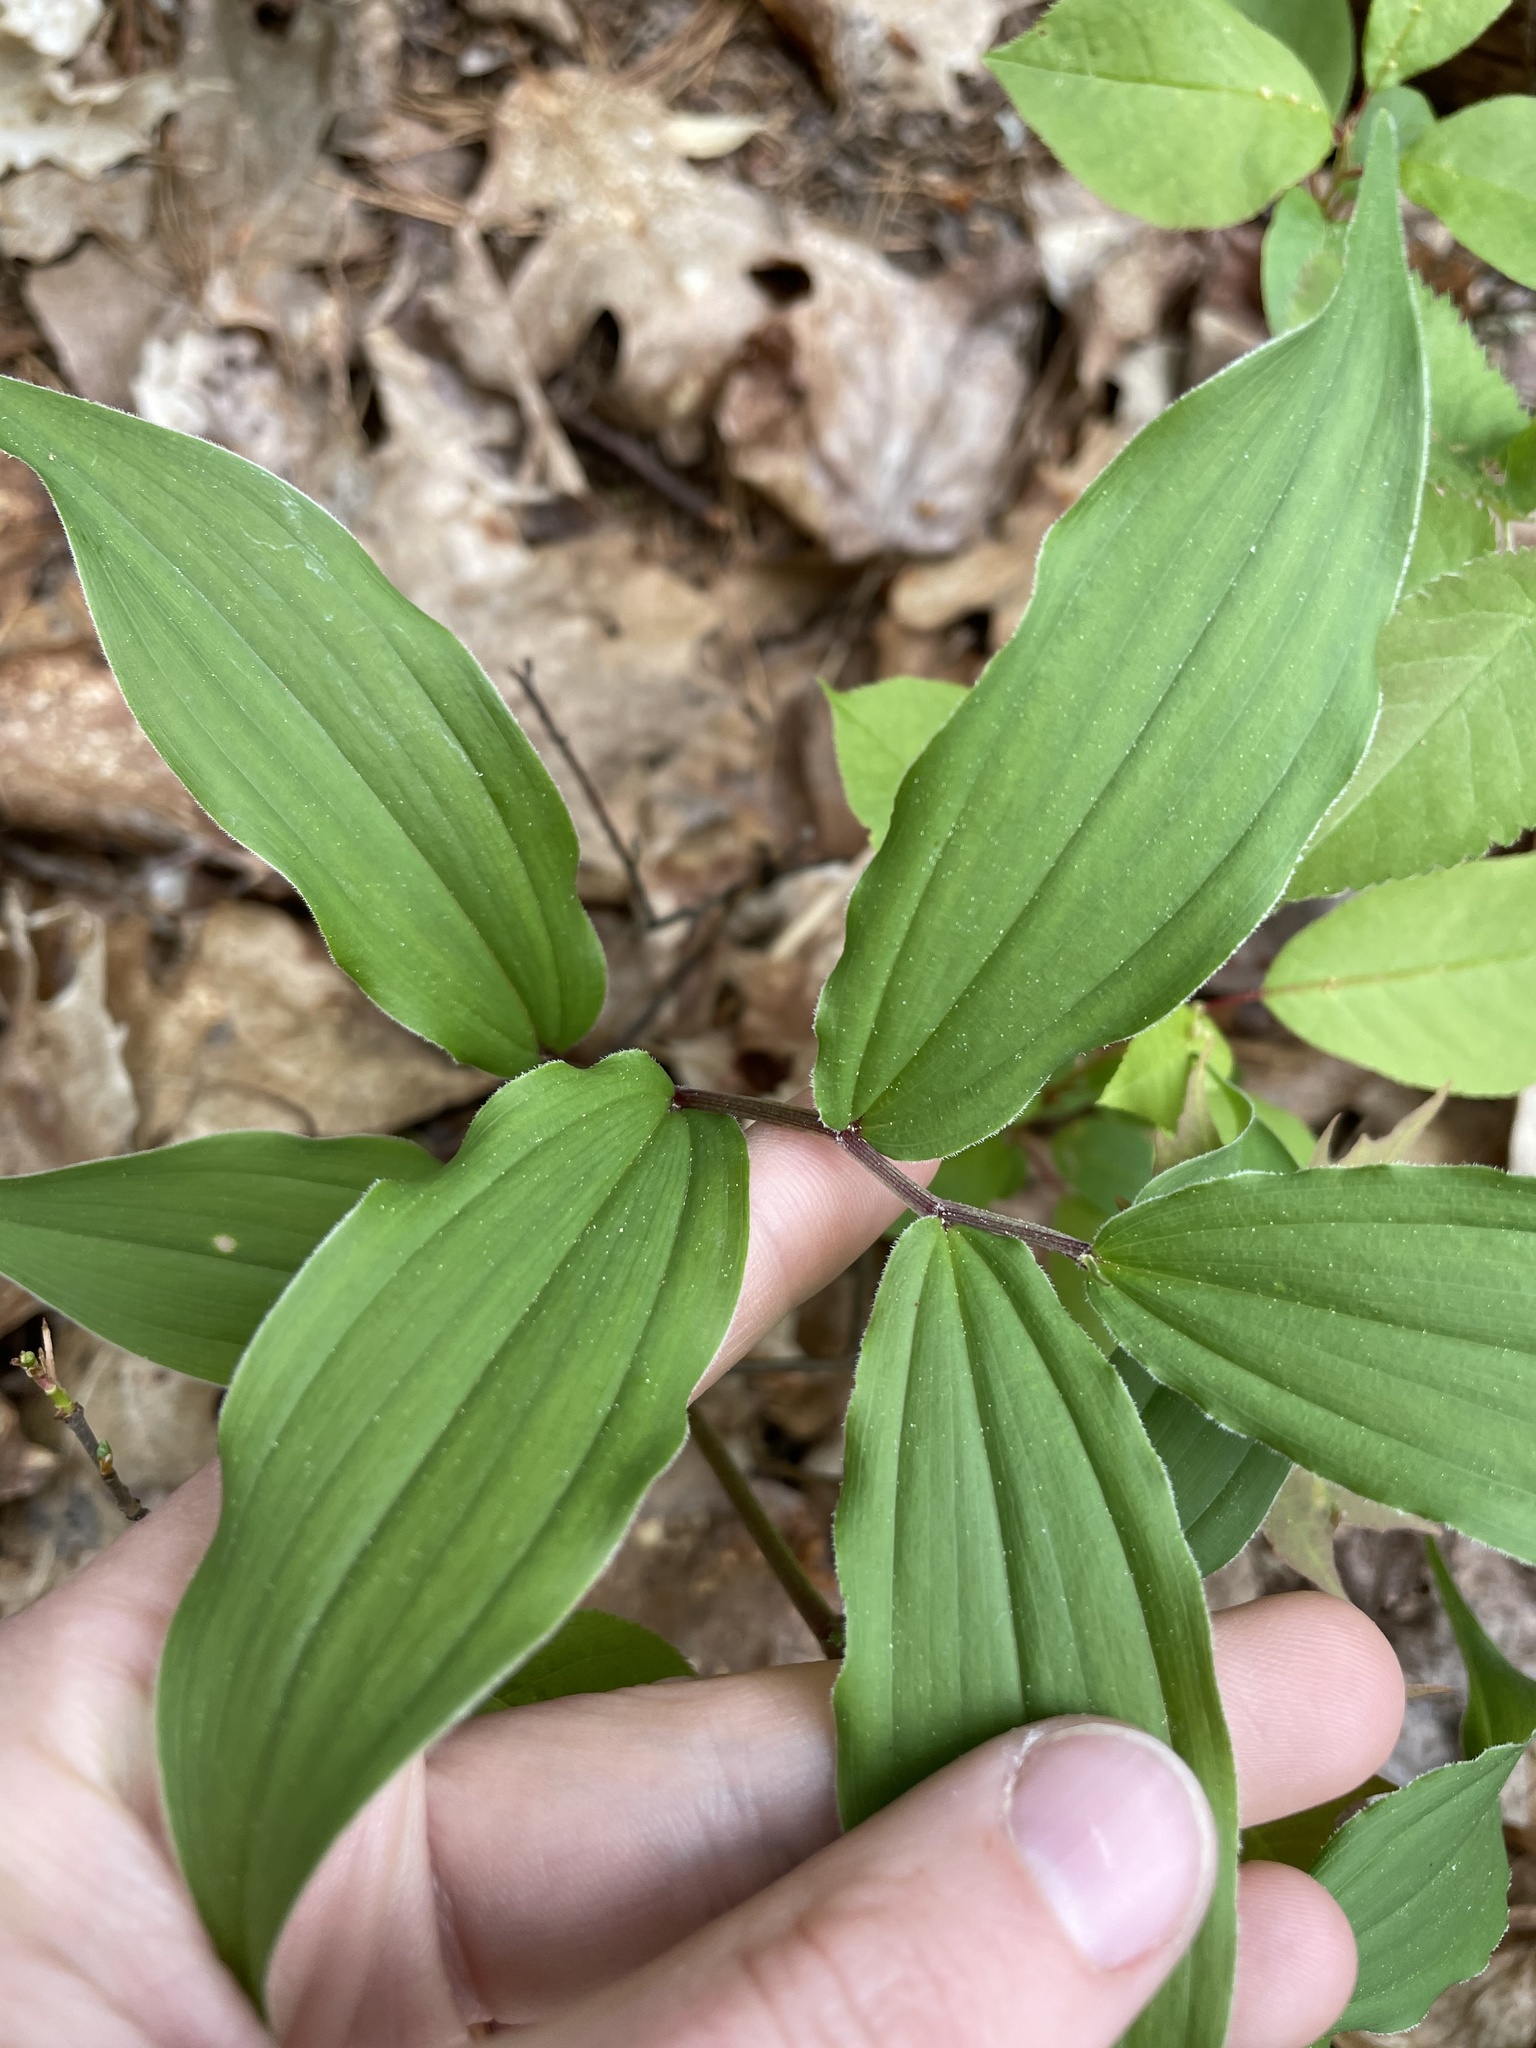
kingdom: Plantae
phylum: Tracheophyta
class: Liliopsida
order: Asparagales
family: Asparagaceae
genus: Maianthemum
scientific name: Maianthemum racemosum
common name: False spikenard
